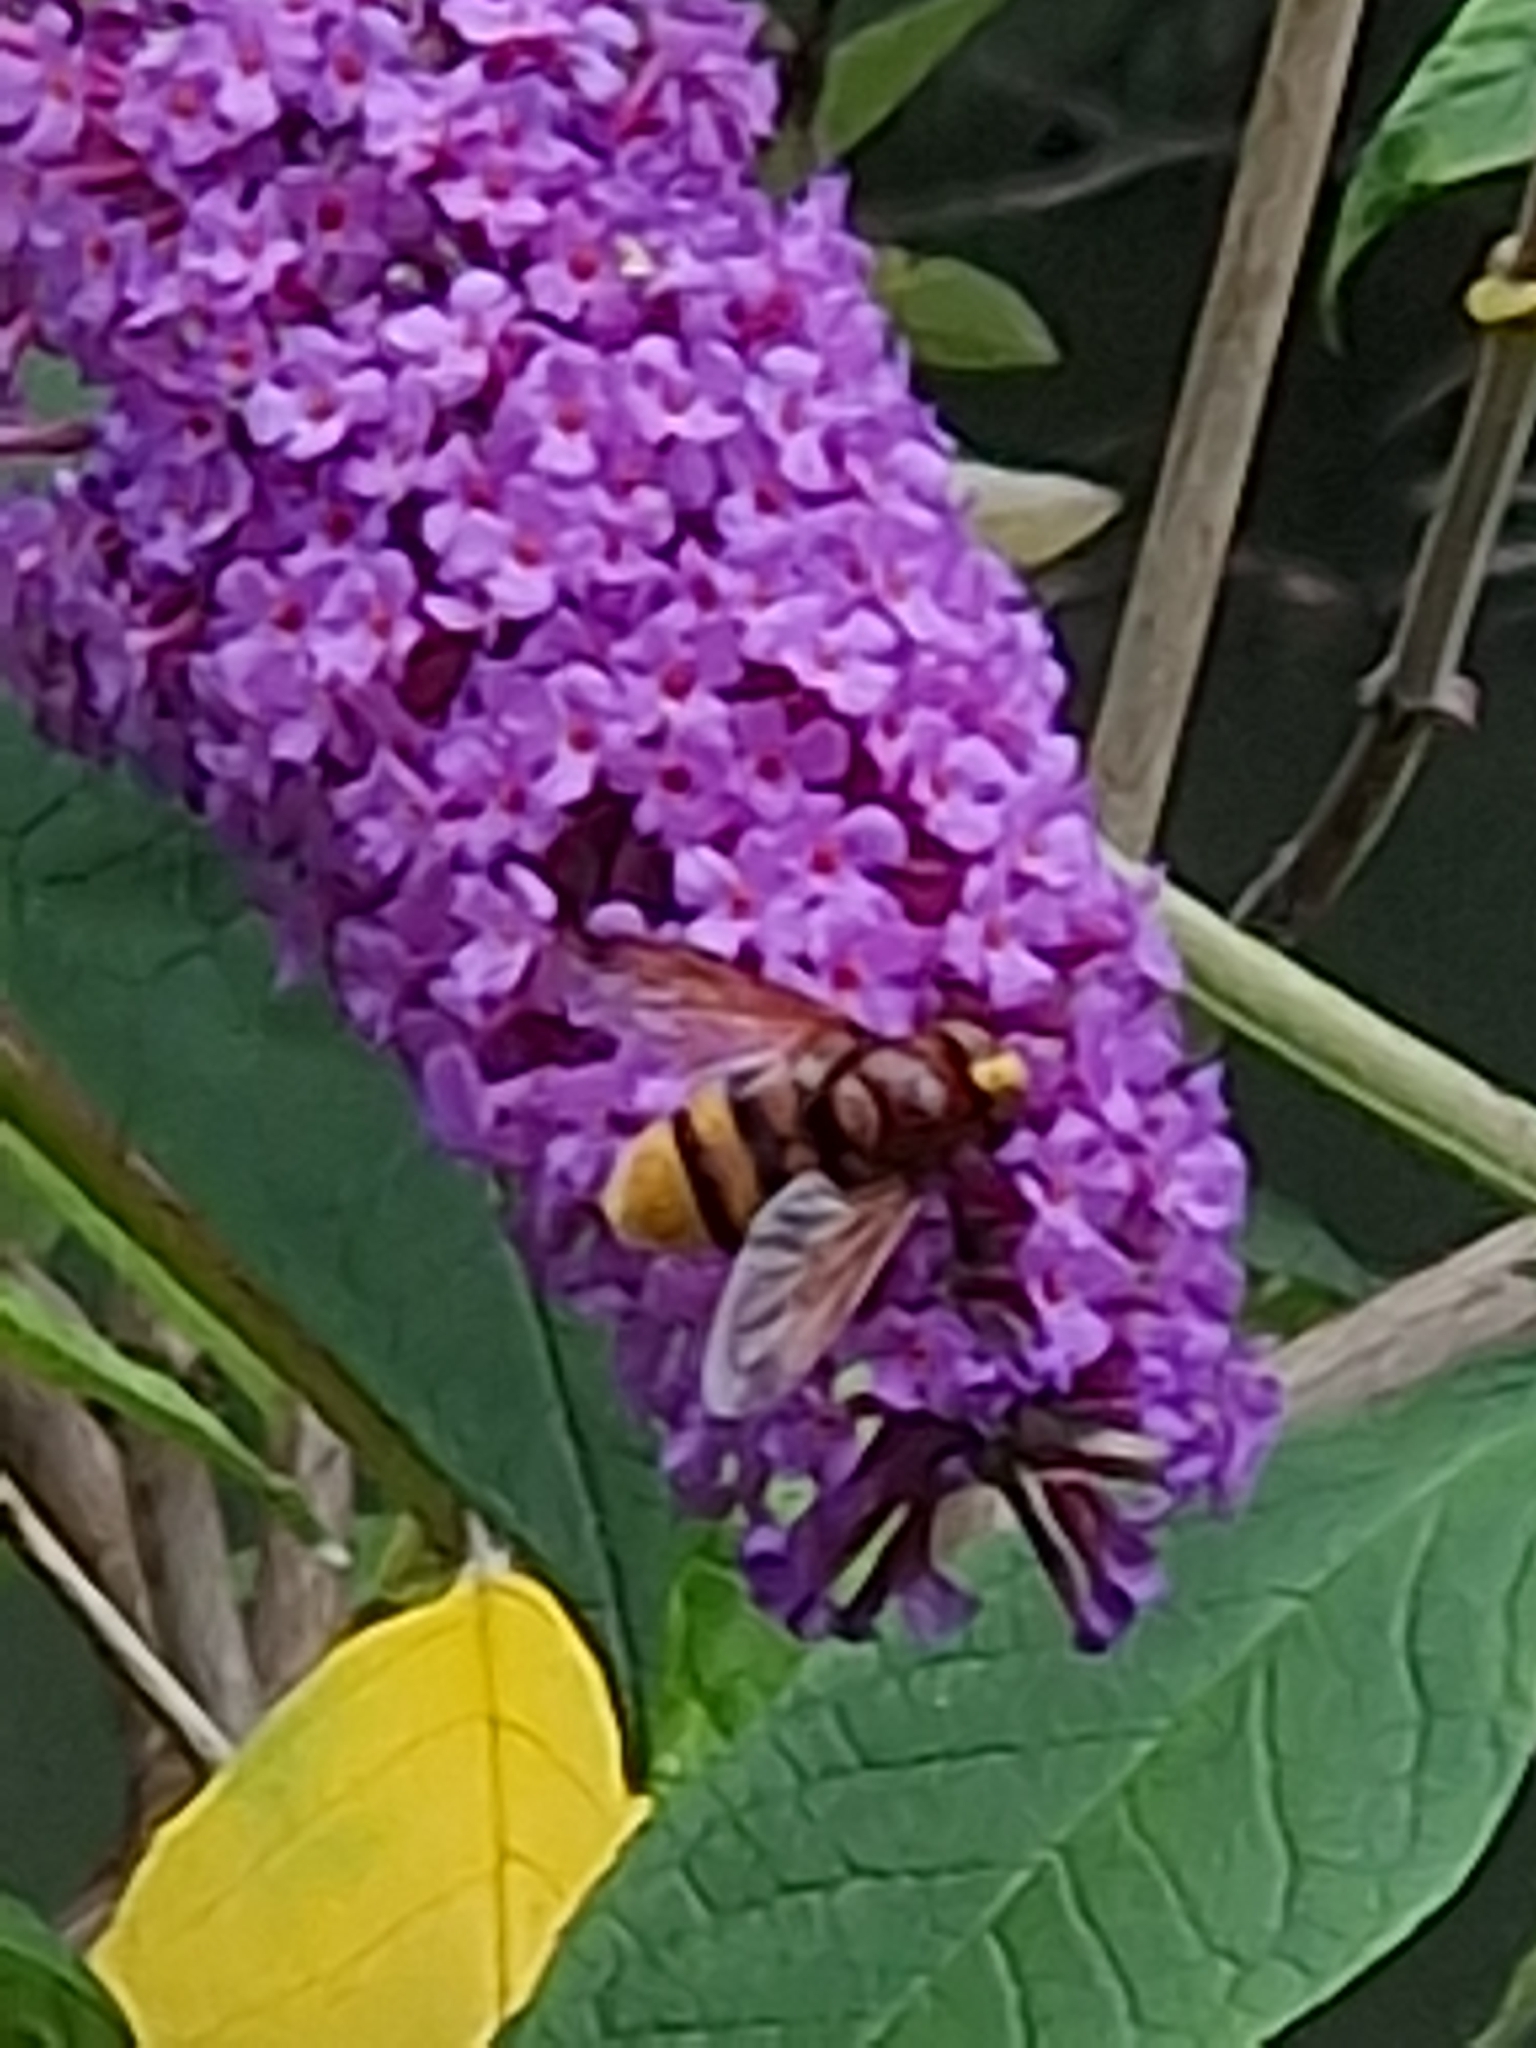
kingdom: Animalia
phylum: Arthropoda
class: Insecta
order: Diptera
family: Syrphidae
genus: Volucella
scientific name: Volucella zonaria
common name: Hornet hoverfly
